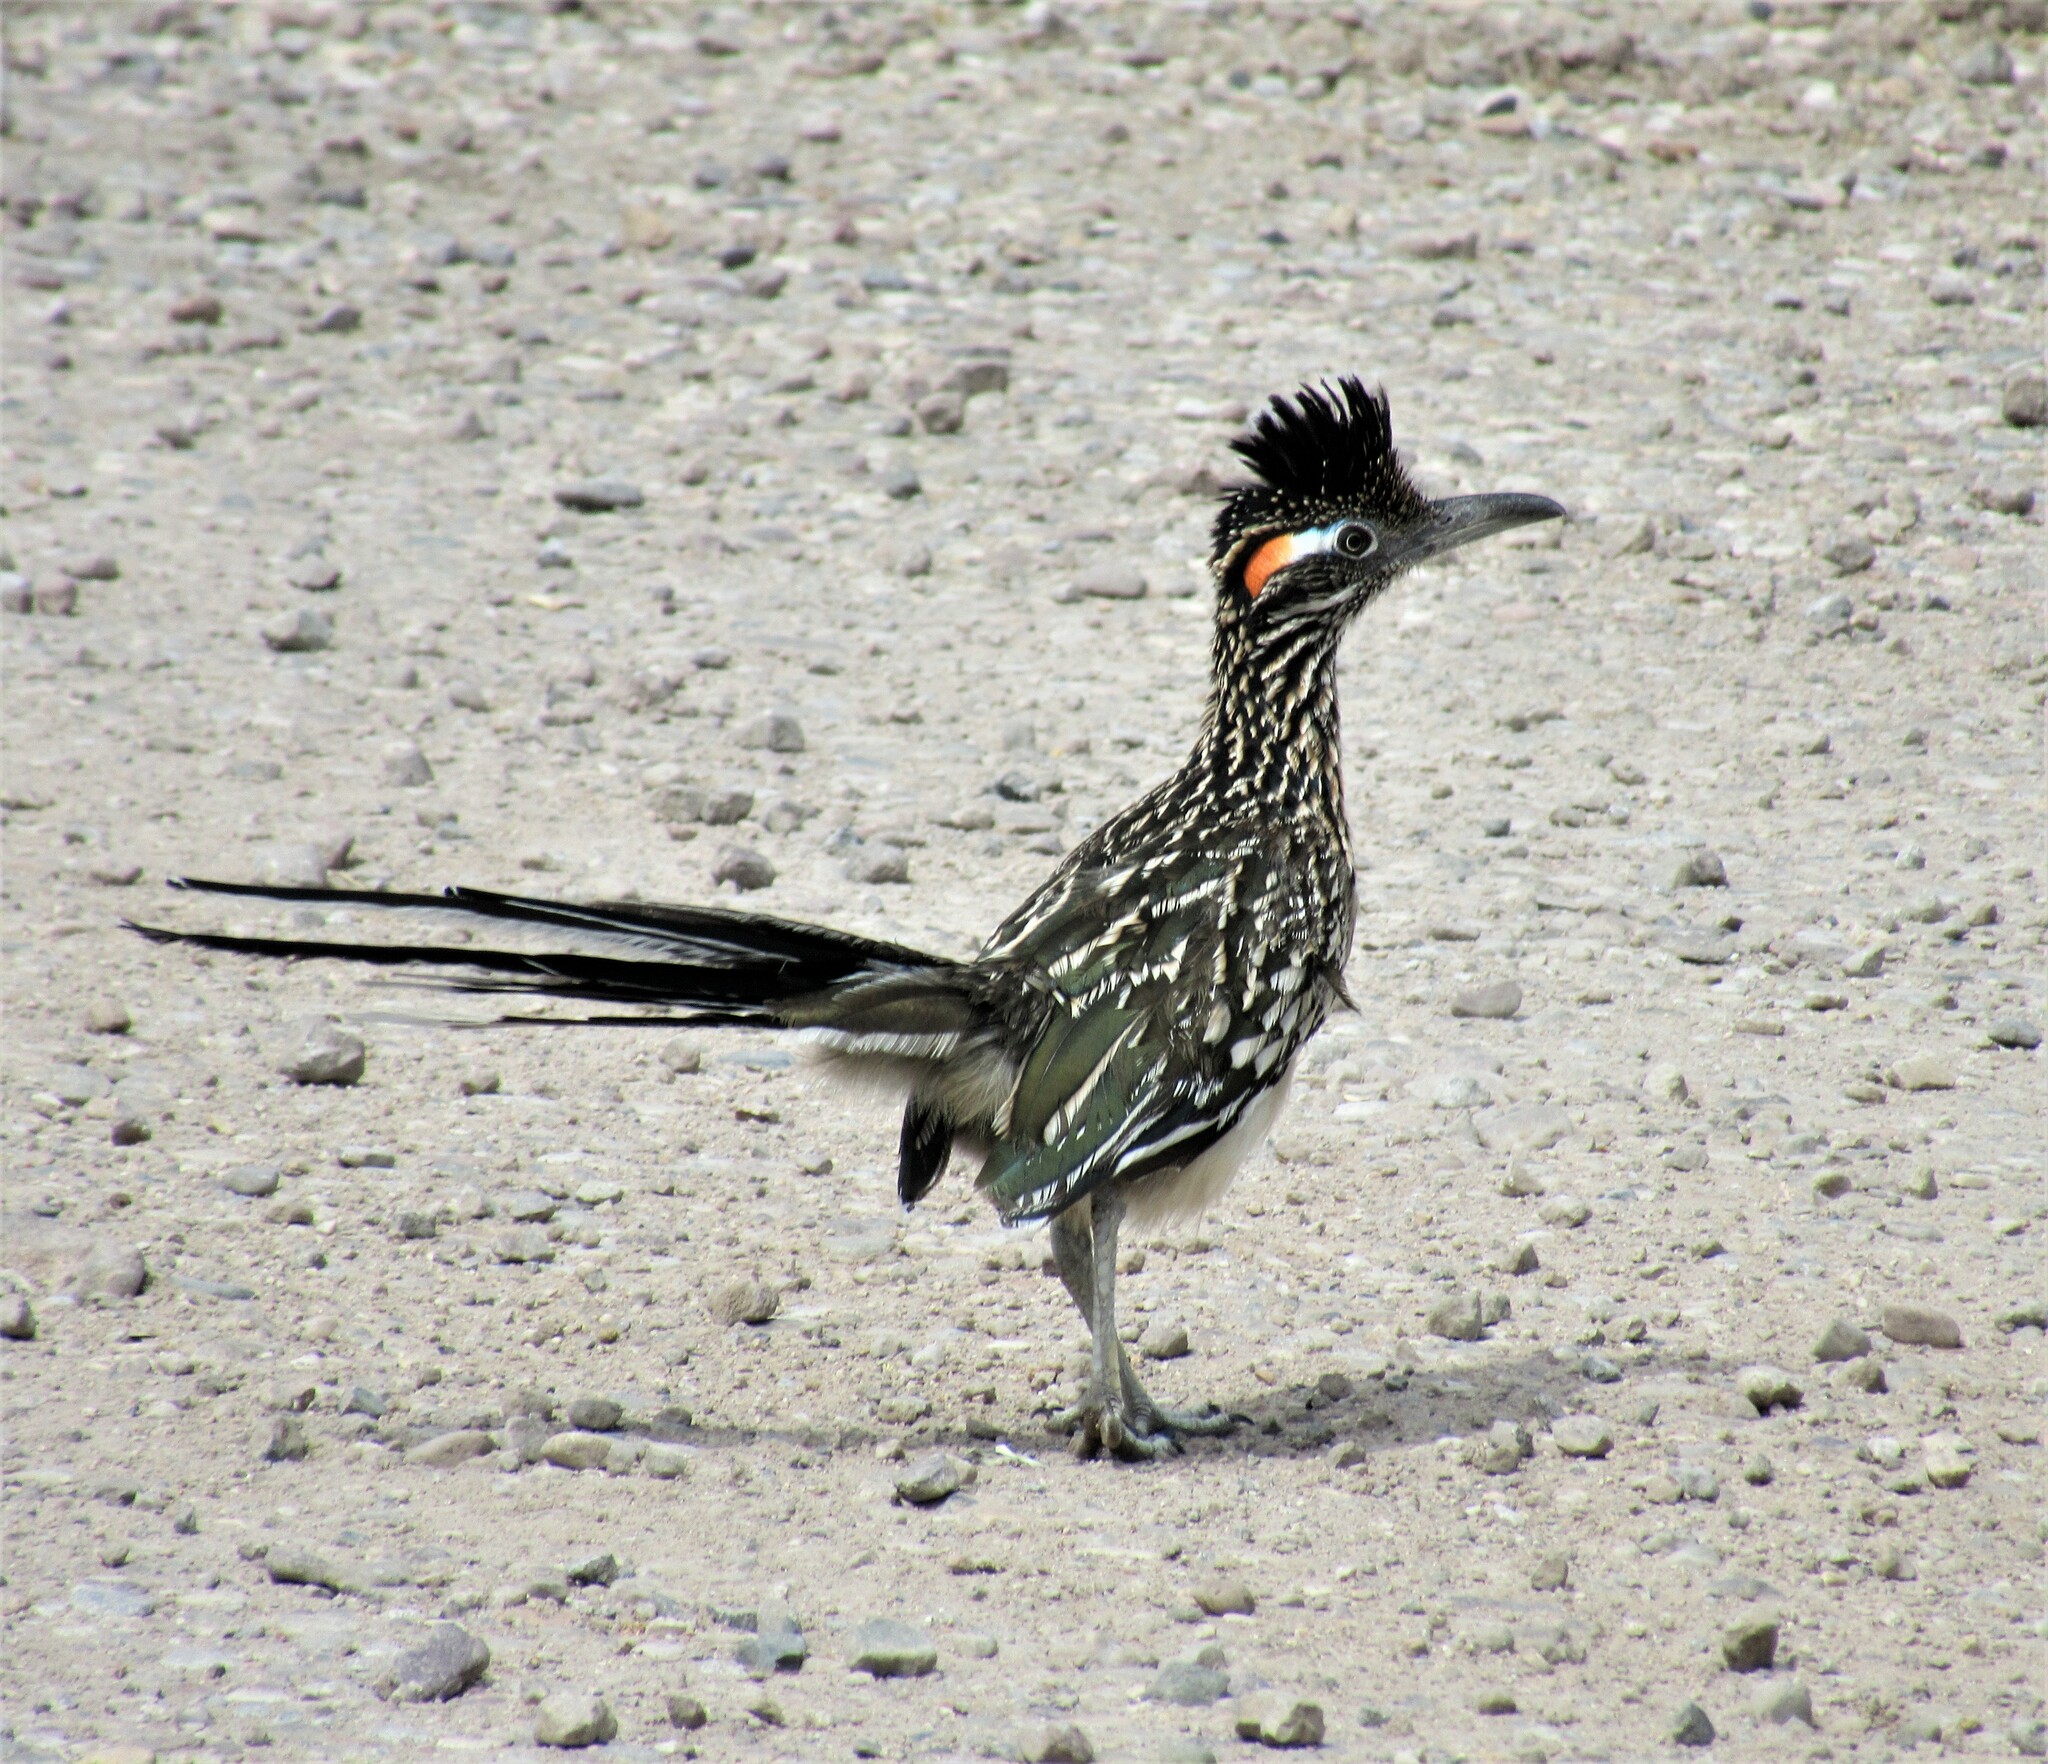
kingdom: Animalia
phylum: Chordata
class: Aves
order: Cuculiformes
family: Cuculidae
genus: Geococcyx
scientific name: Geococcyx californianus
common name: Greater roadrunner
